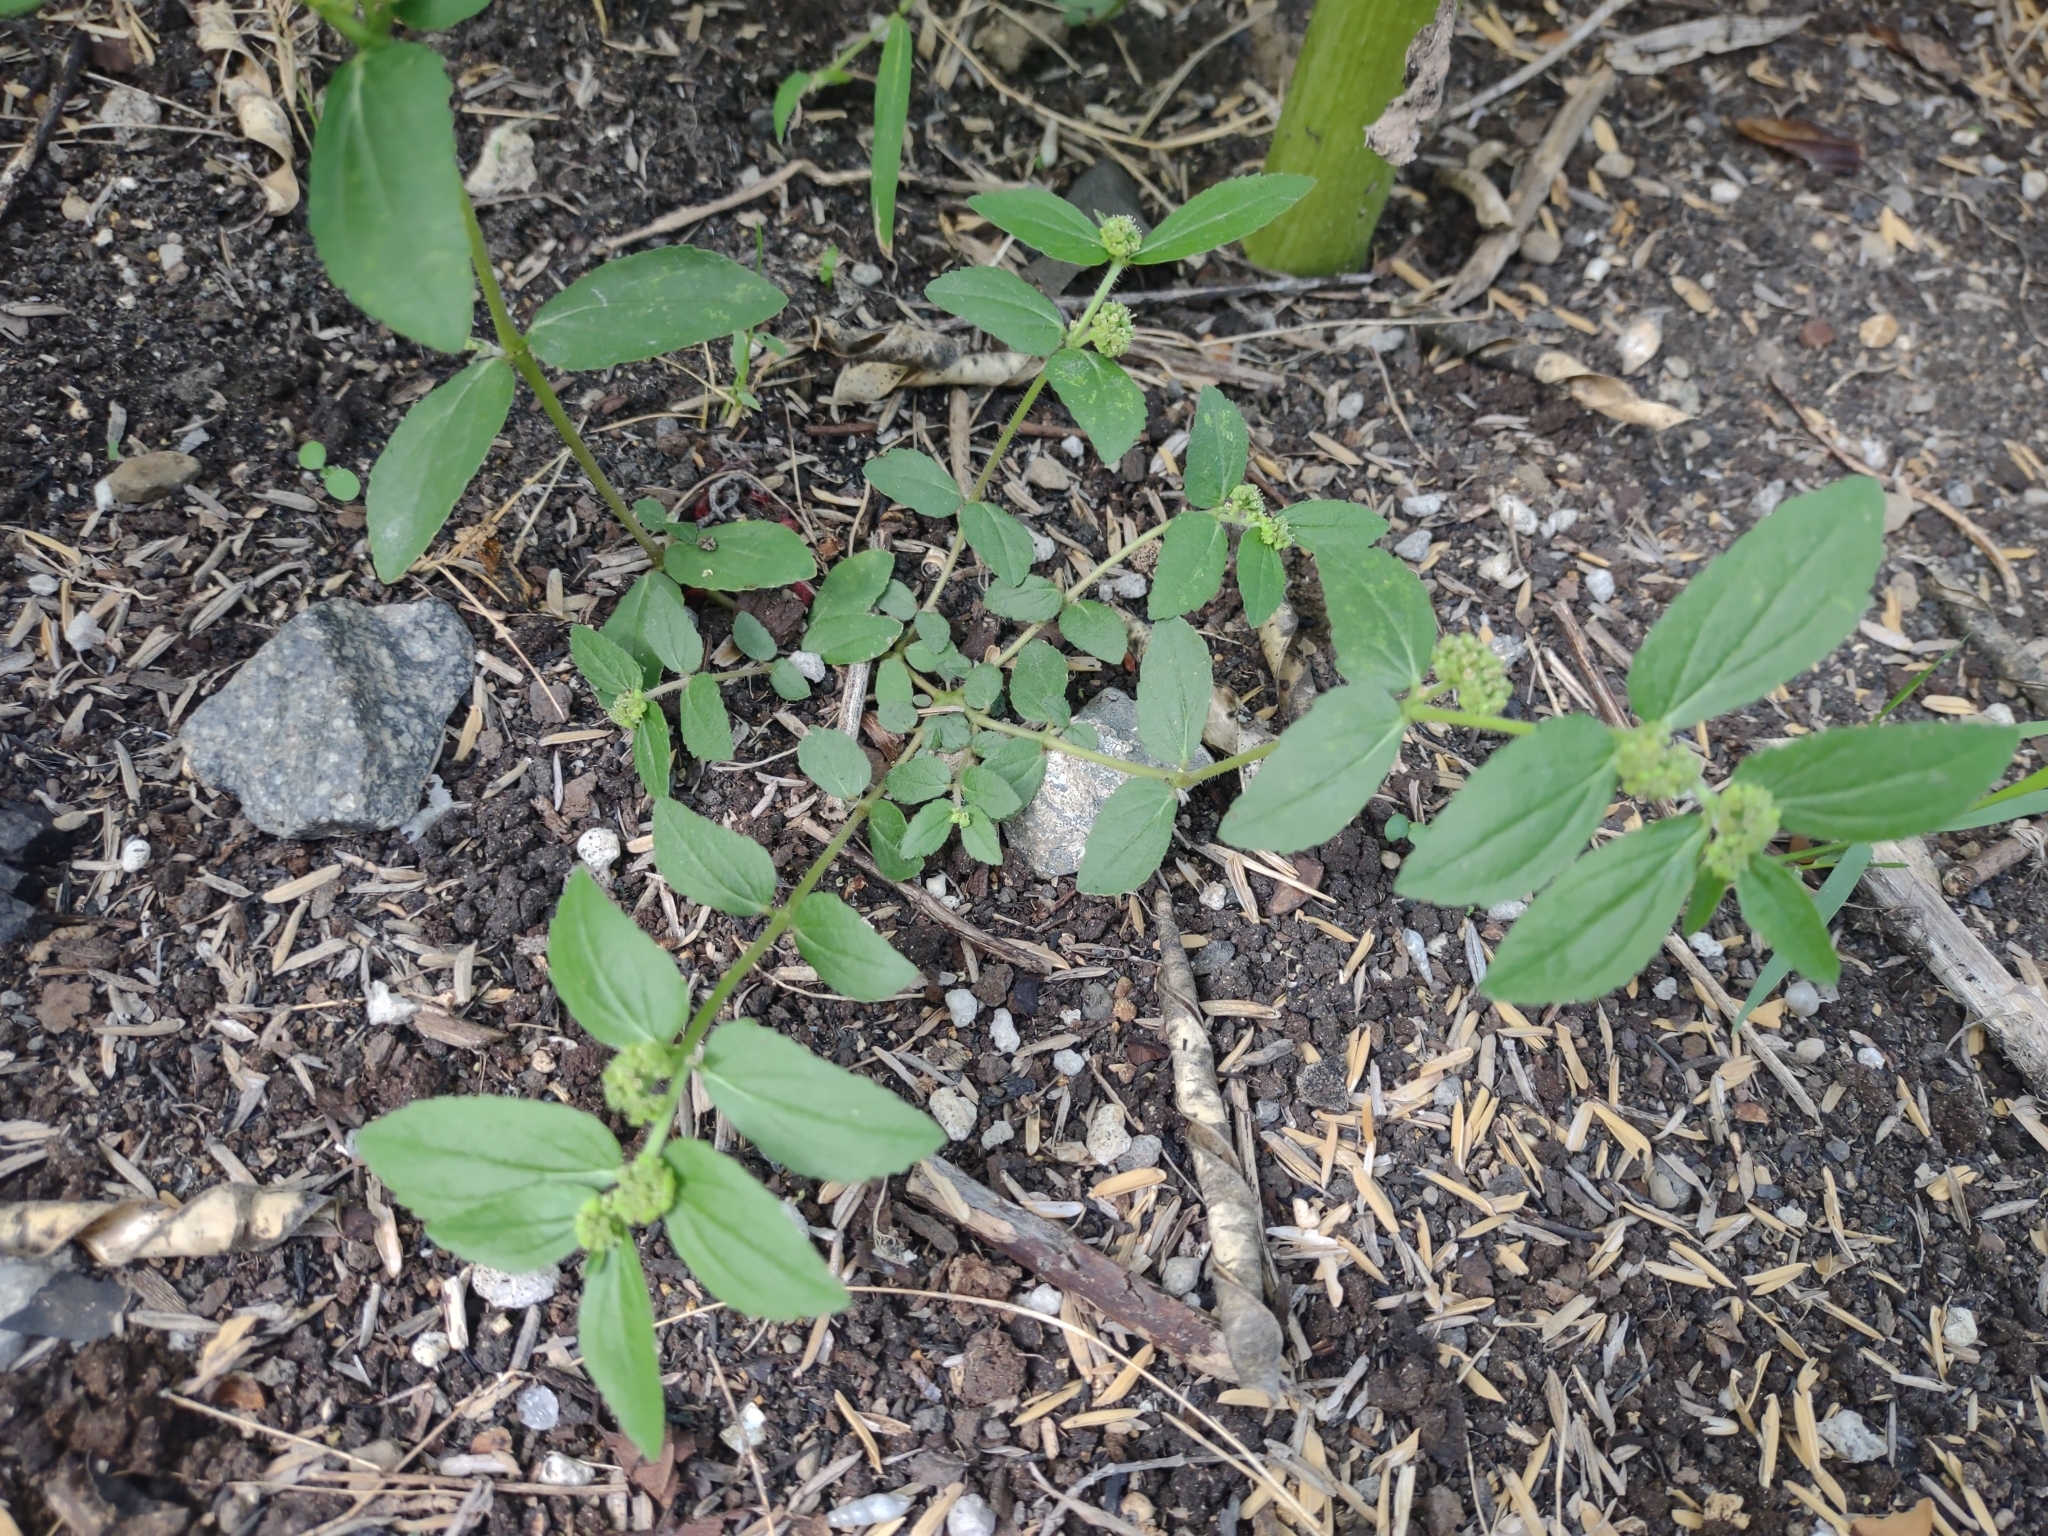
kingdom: Plantae
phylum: Tracheophyta
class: Magnoliopsida
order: Malpighiales
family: Euphorbiaceae
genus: Euphorbia
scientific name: Euphorbia hirta
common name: Pillpod sandmat
